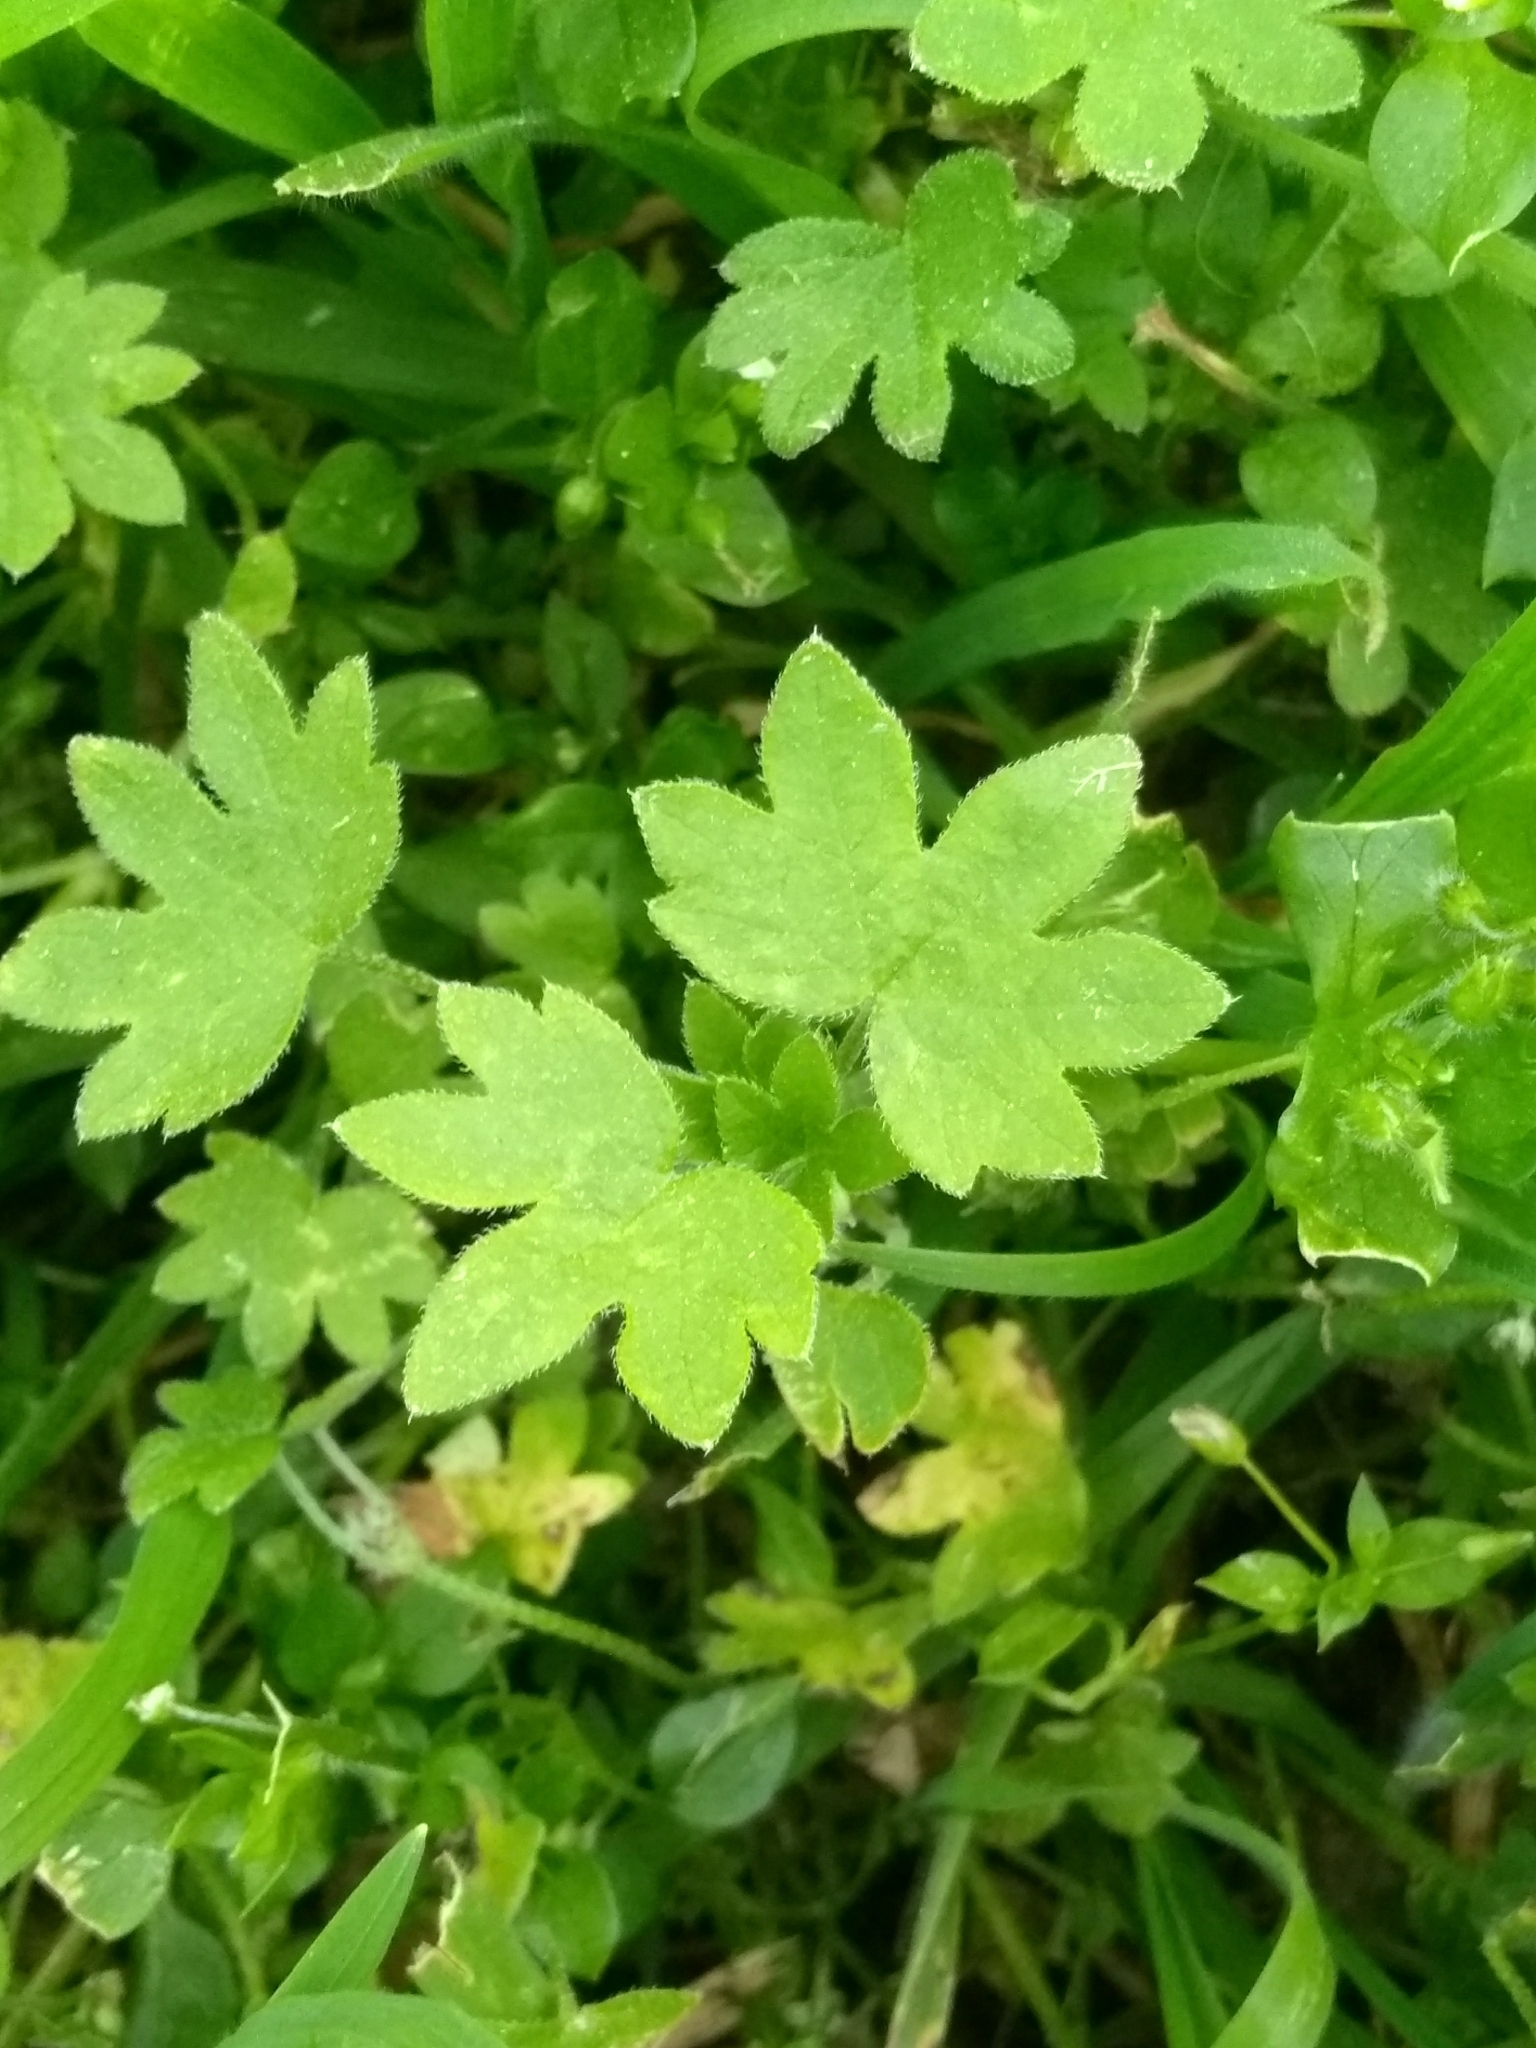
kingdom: Plantae
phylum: Tracheophyta
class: Magnoliopsida
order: Apiales
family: Apiaceae
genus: Bowlesia
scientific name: Bowlesia incana
